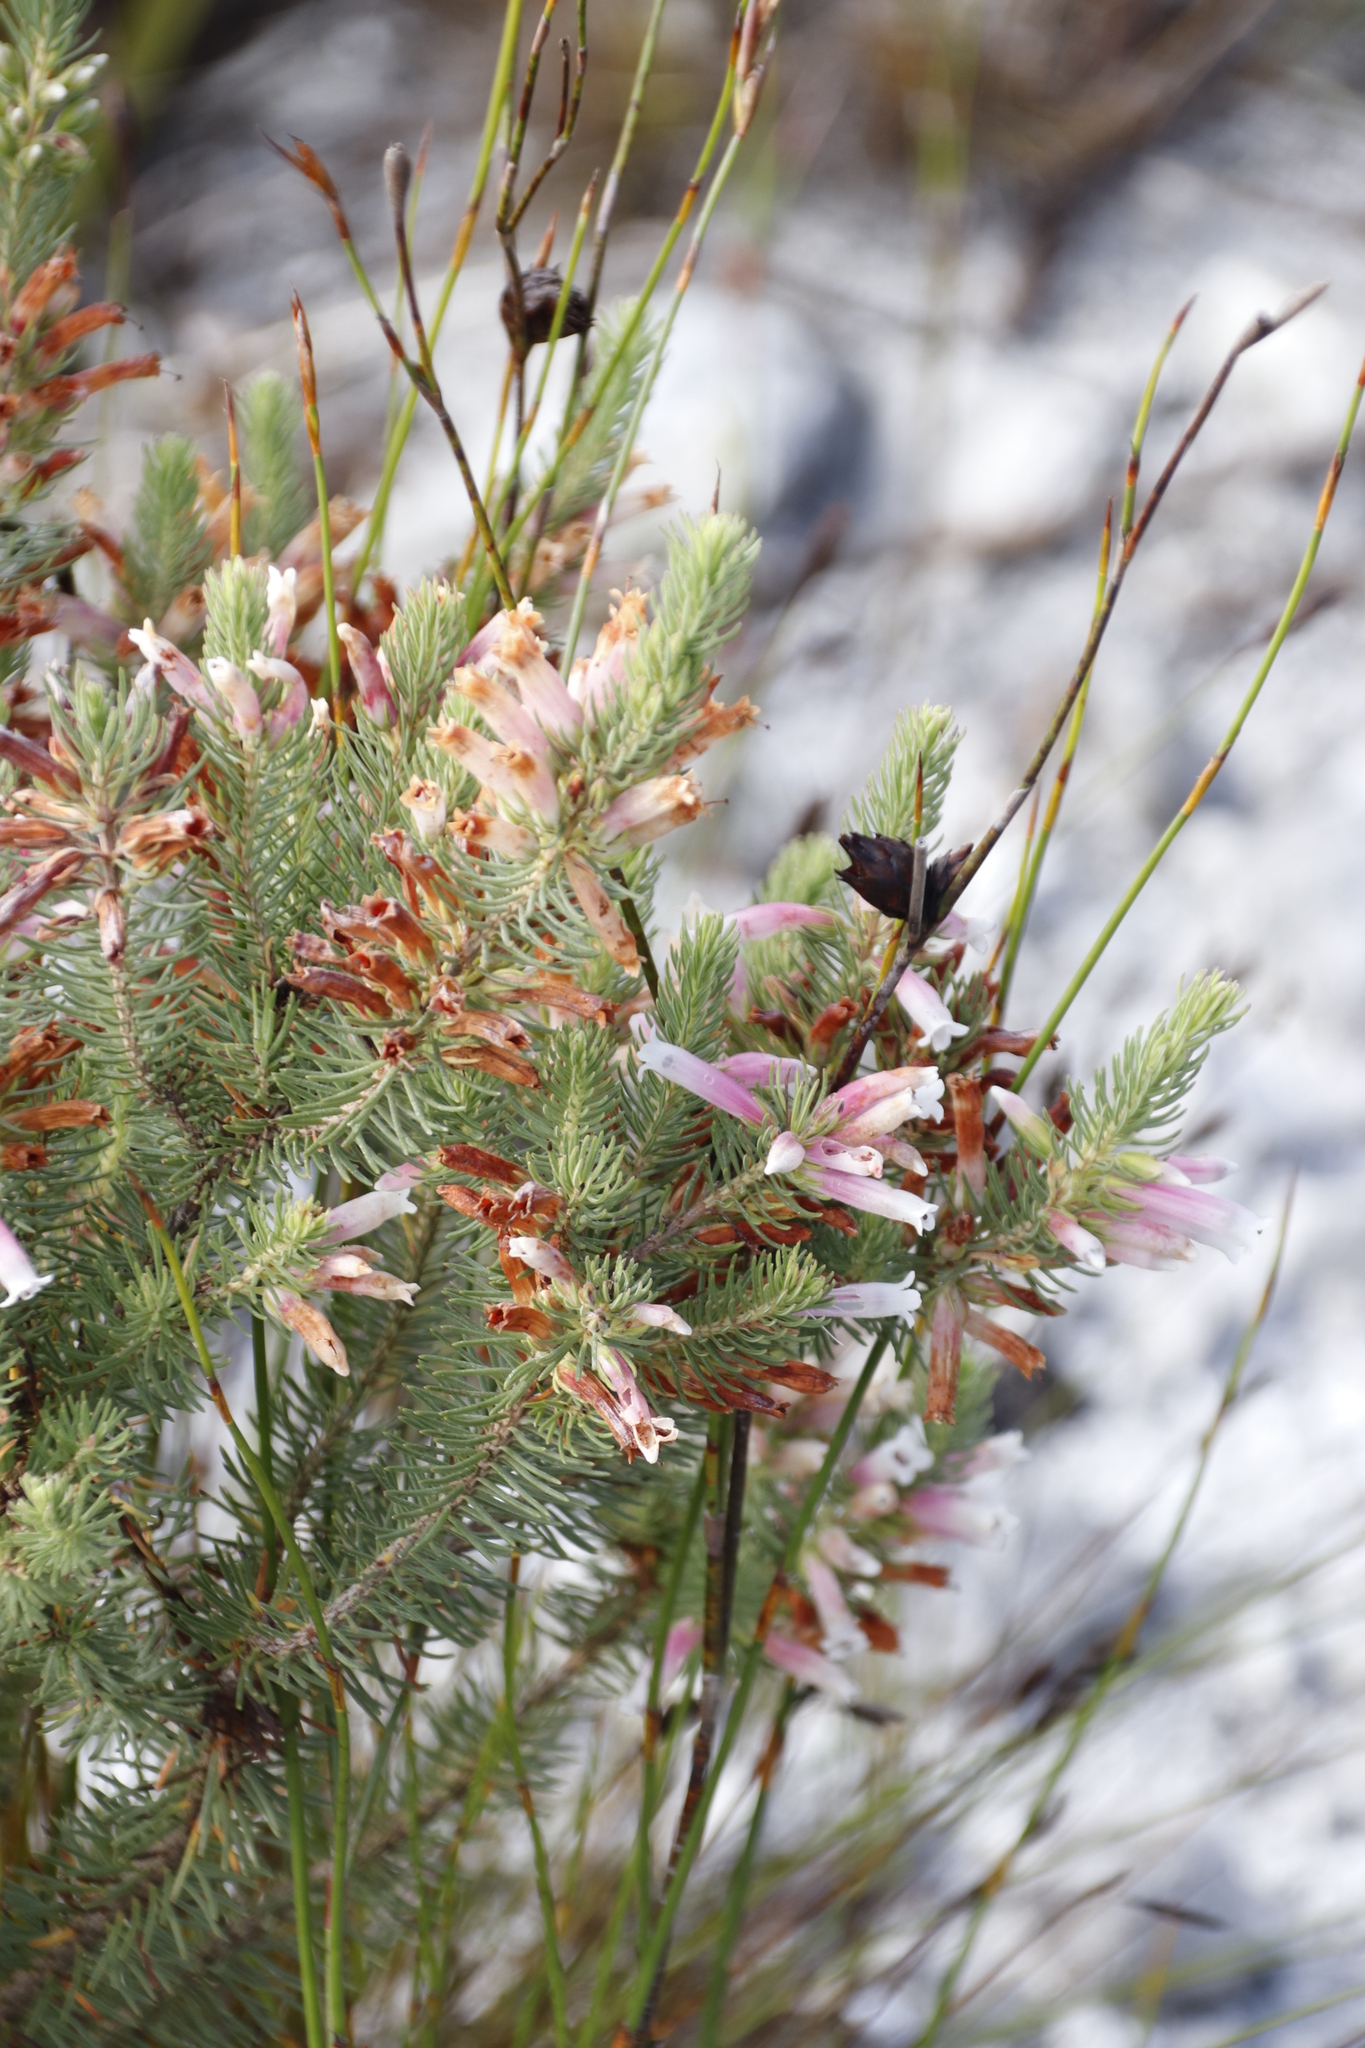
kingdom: Plantae
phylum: Tracheophyta
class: Magnoliopsida
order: Ericales
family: Ericaceae
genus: Erica
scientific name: Erica viscaria
